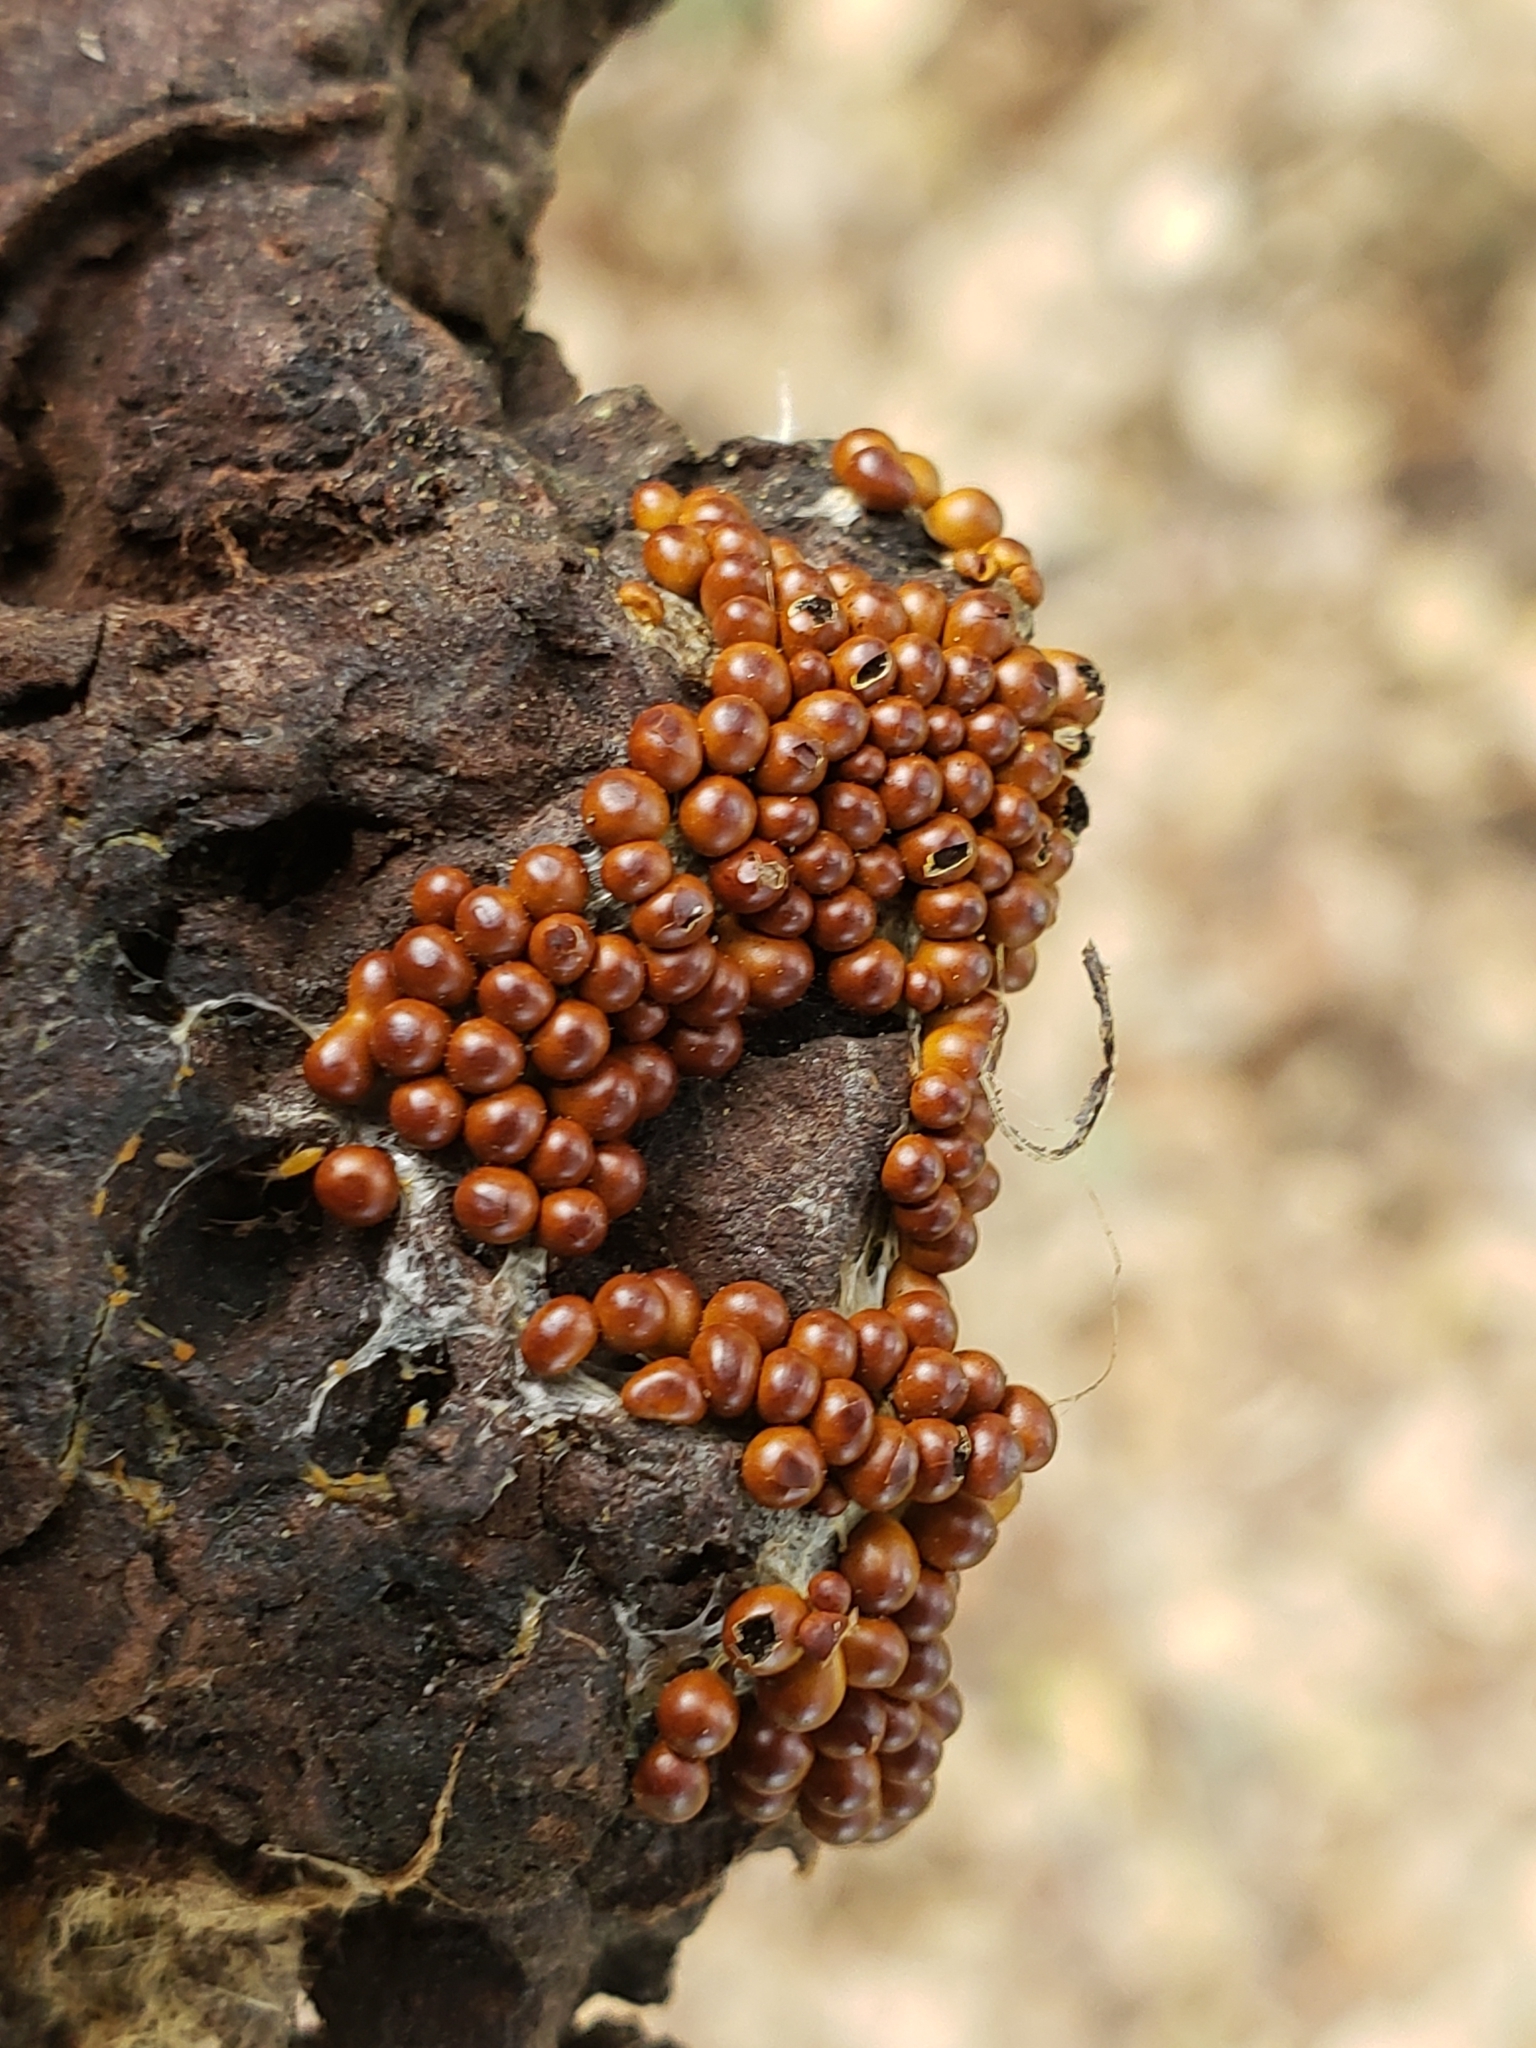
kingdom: Protozoa
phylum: Mycetozoa
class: Myxomycetes
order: Physarales
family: Physaraceae
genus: Leocarpus
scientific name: Leocarpus fragilis
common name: Insect-egg slime
